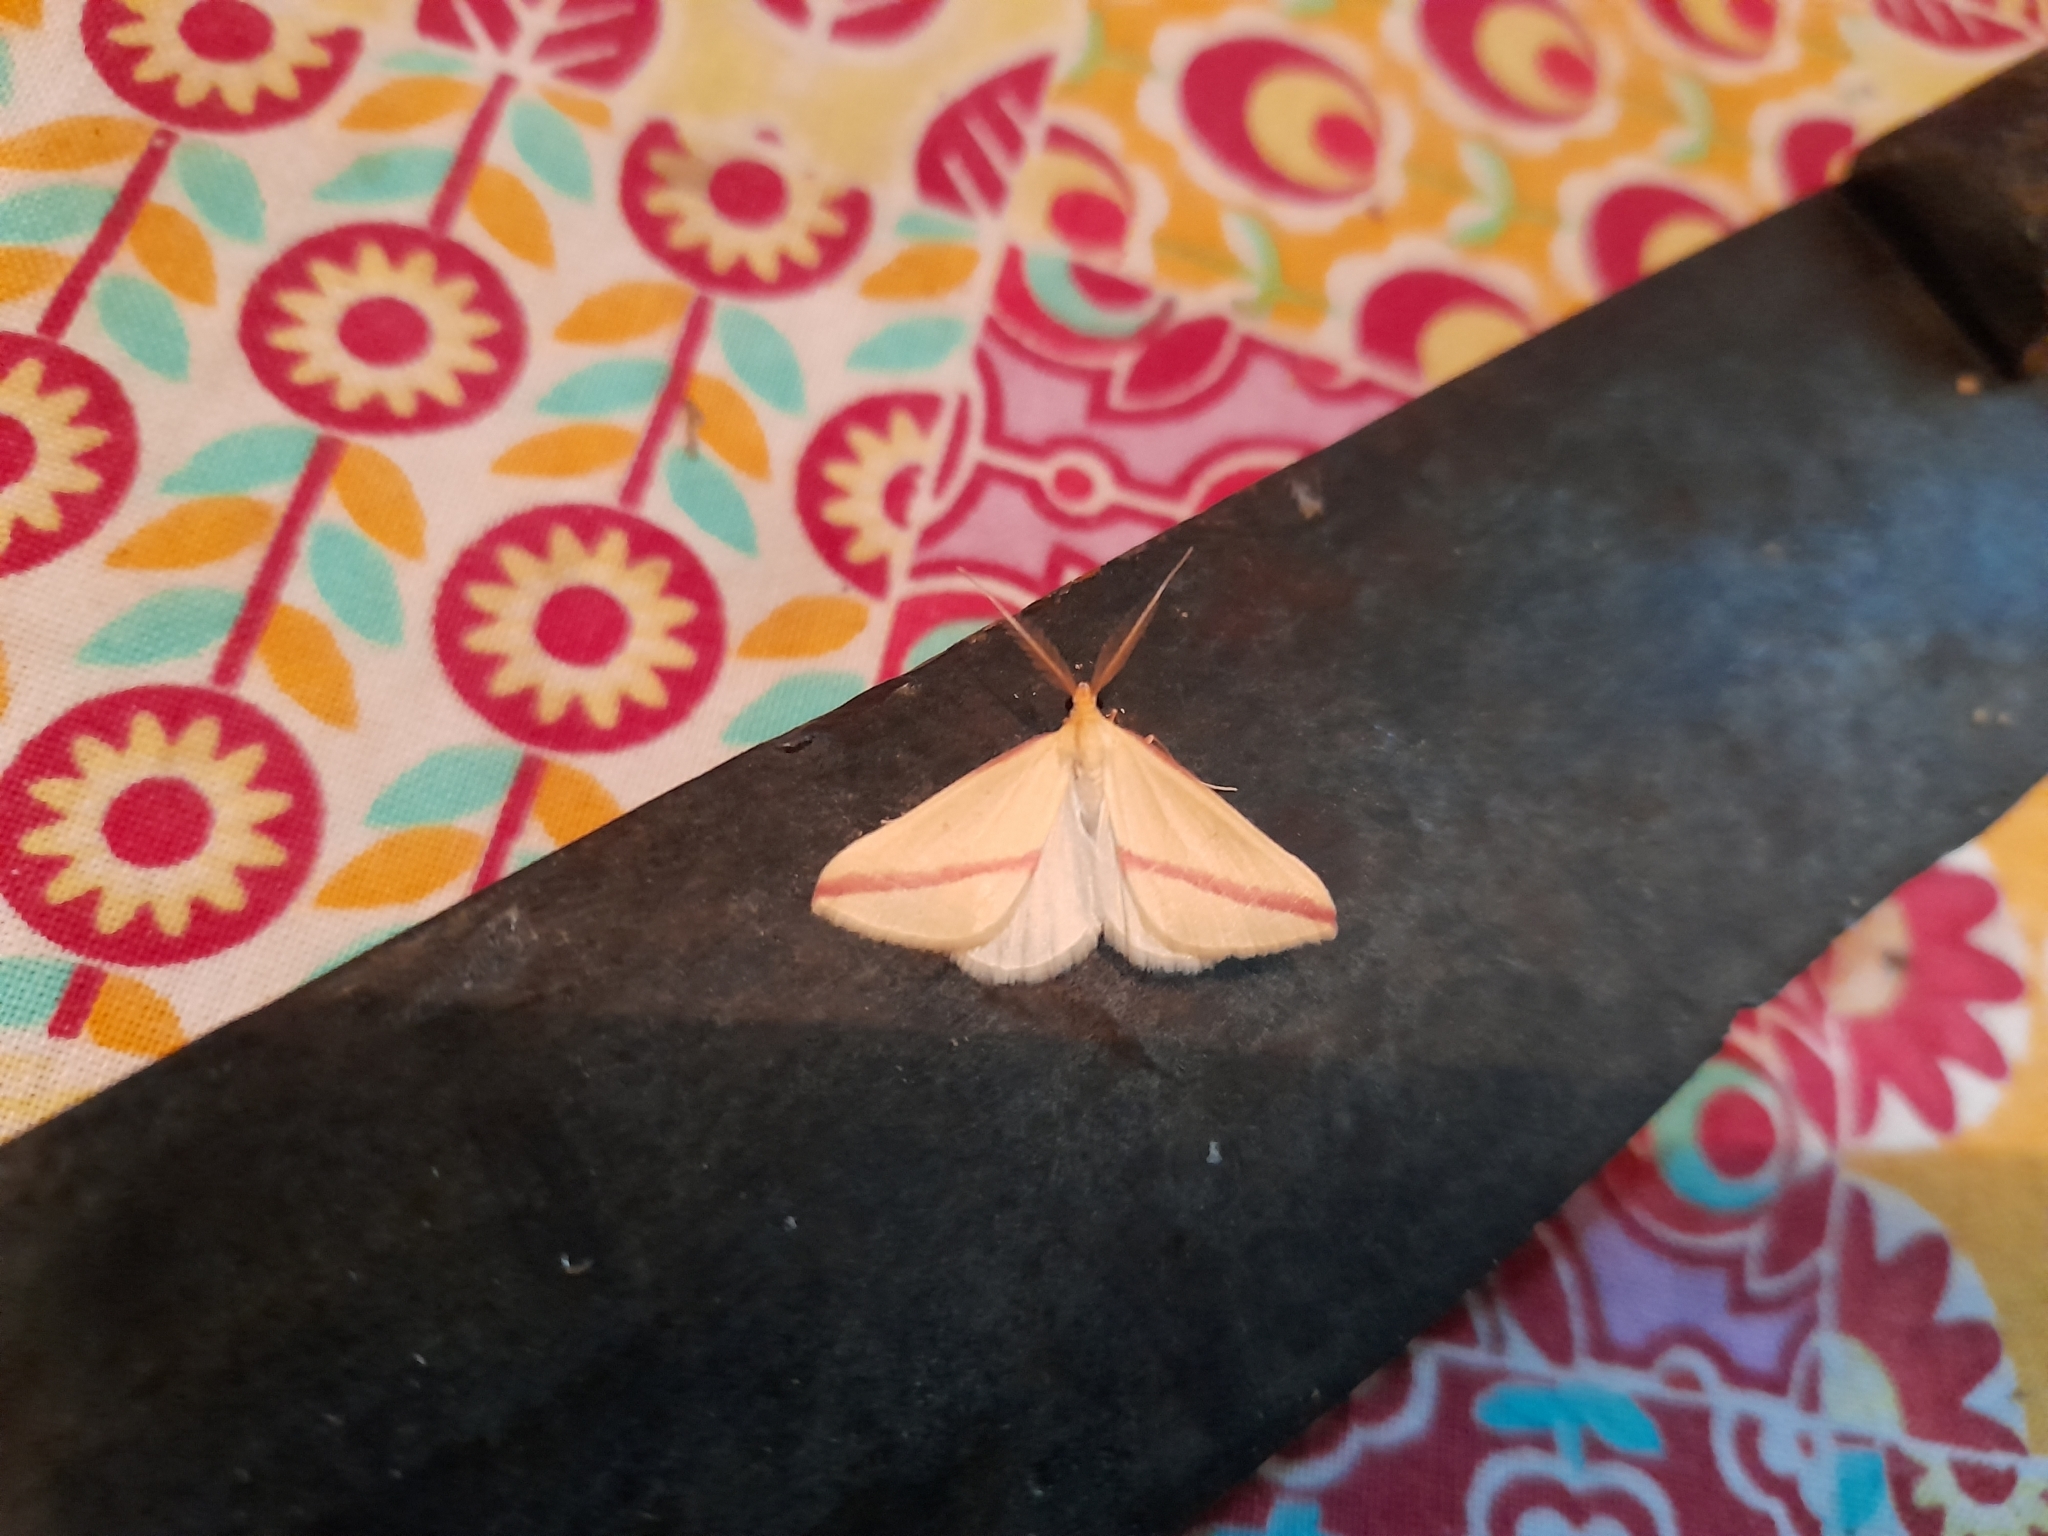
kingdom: Animalia
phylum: Arthropoda
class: Insecta
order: Lepidoptera
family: Geometridae
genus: Rhodometra
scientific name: Rhodometra sacraria
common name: Vestal
